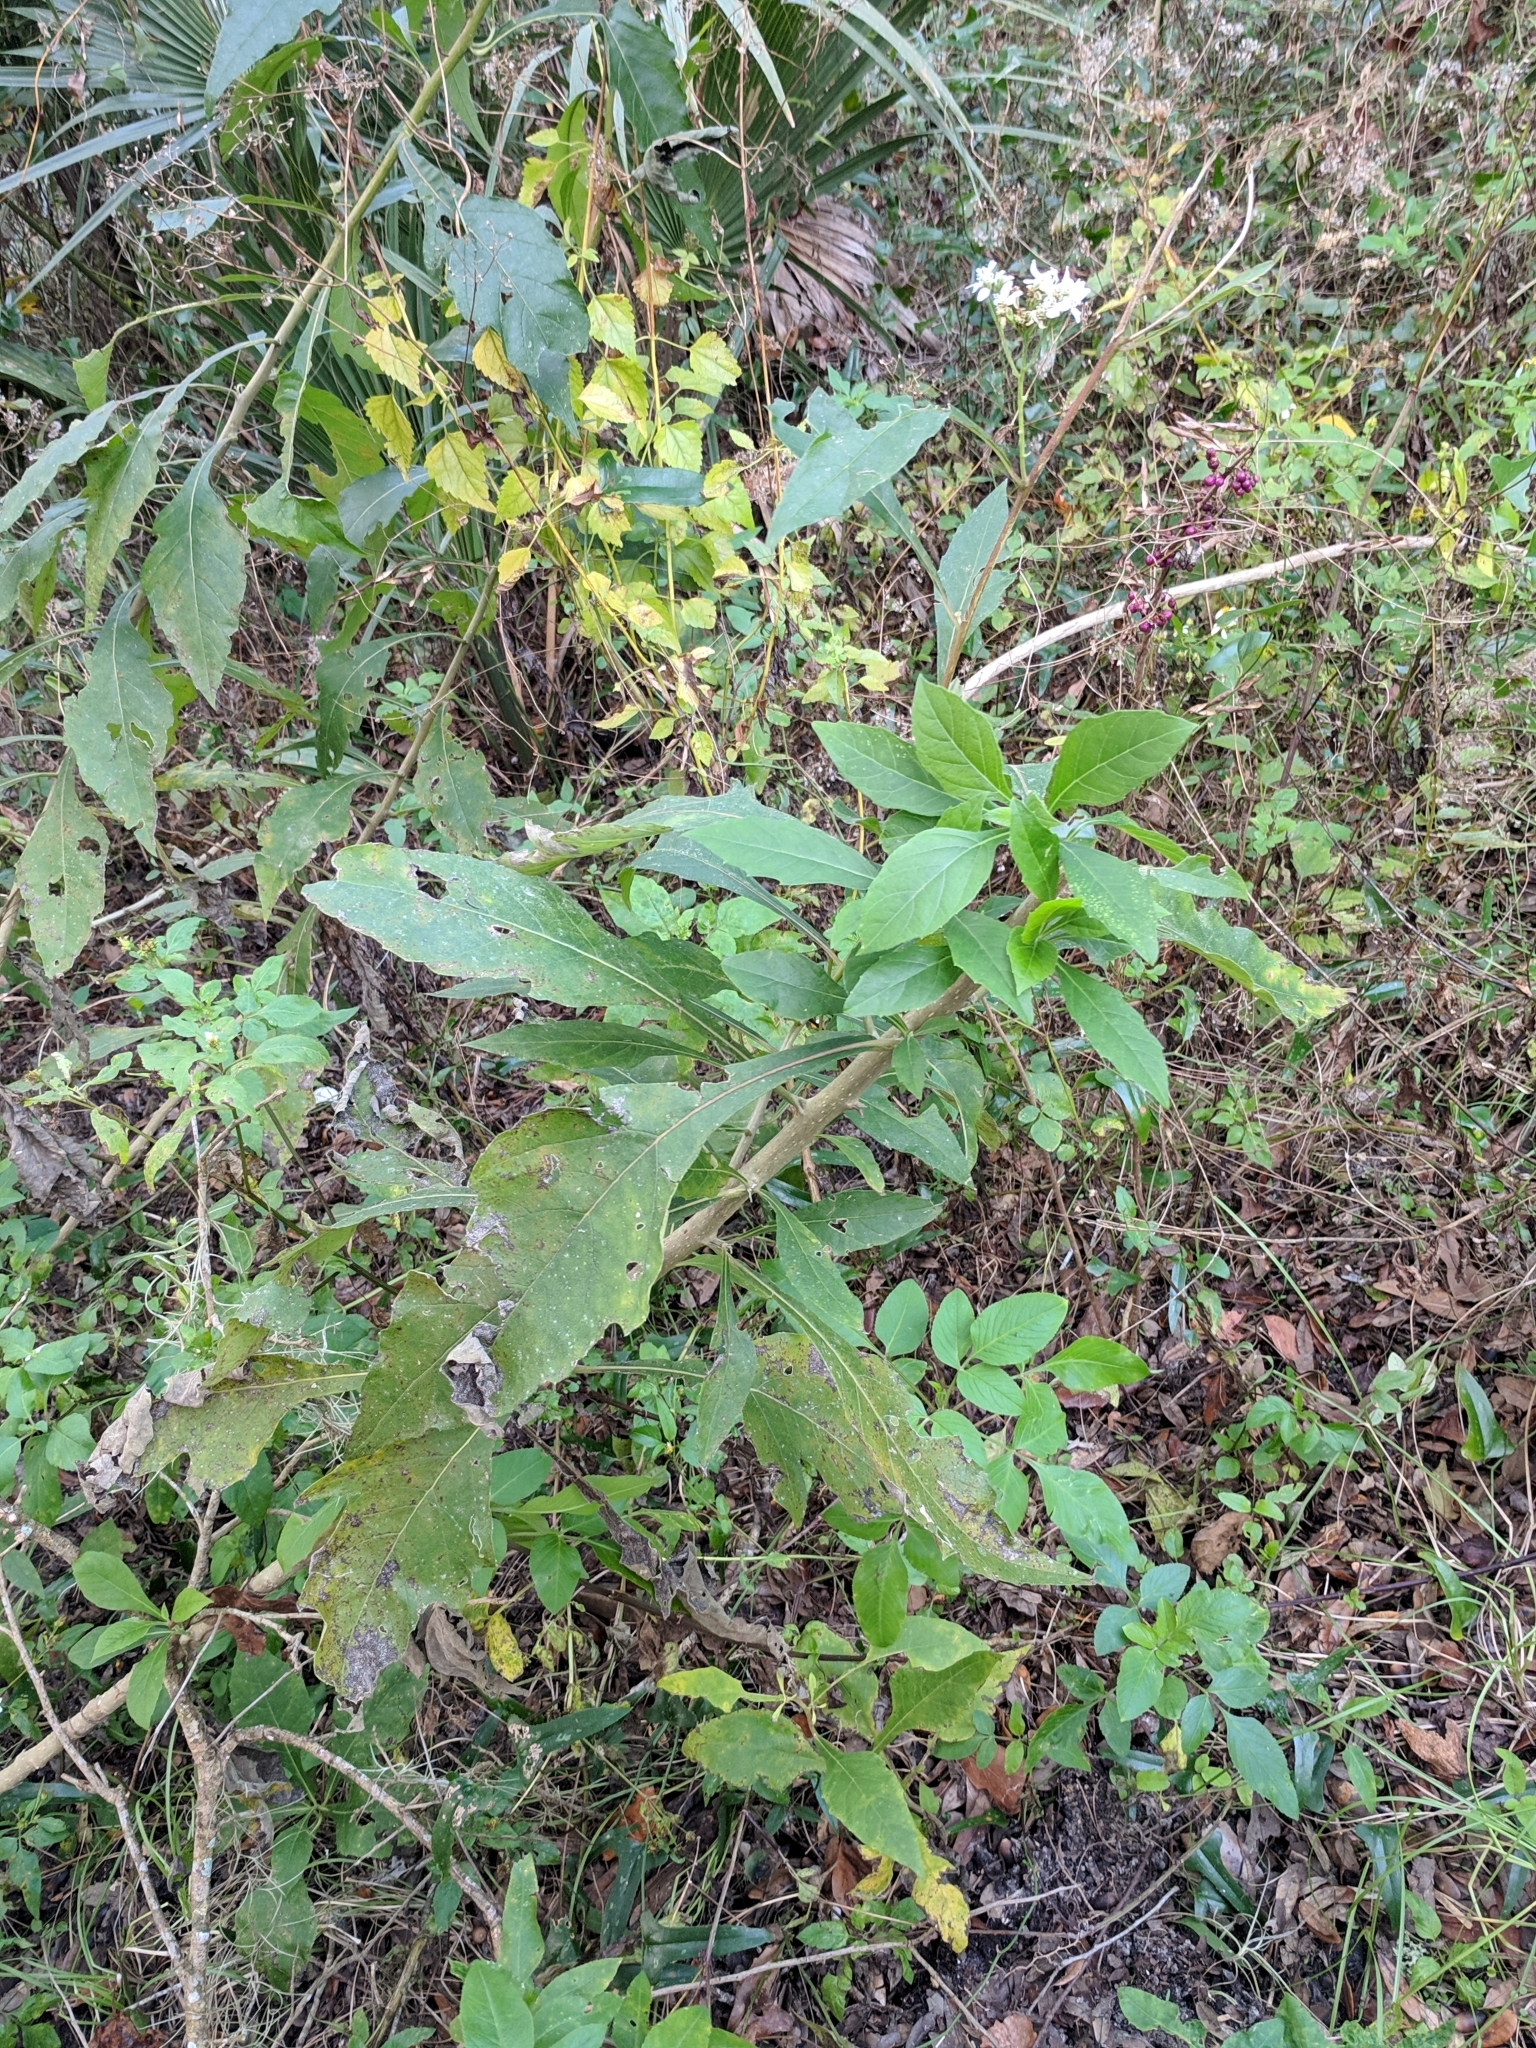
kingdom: Plantae
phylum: Tracheophyta
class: Magnoliopsida
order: Asterales
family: Asteraceae
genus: Verbesina
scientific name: Verbesina virginica
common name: Frostweed
